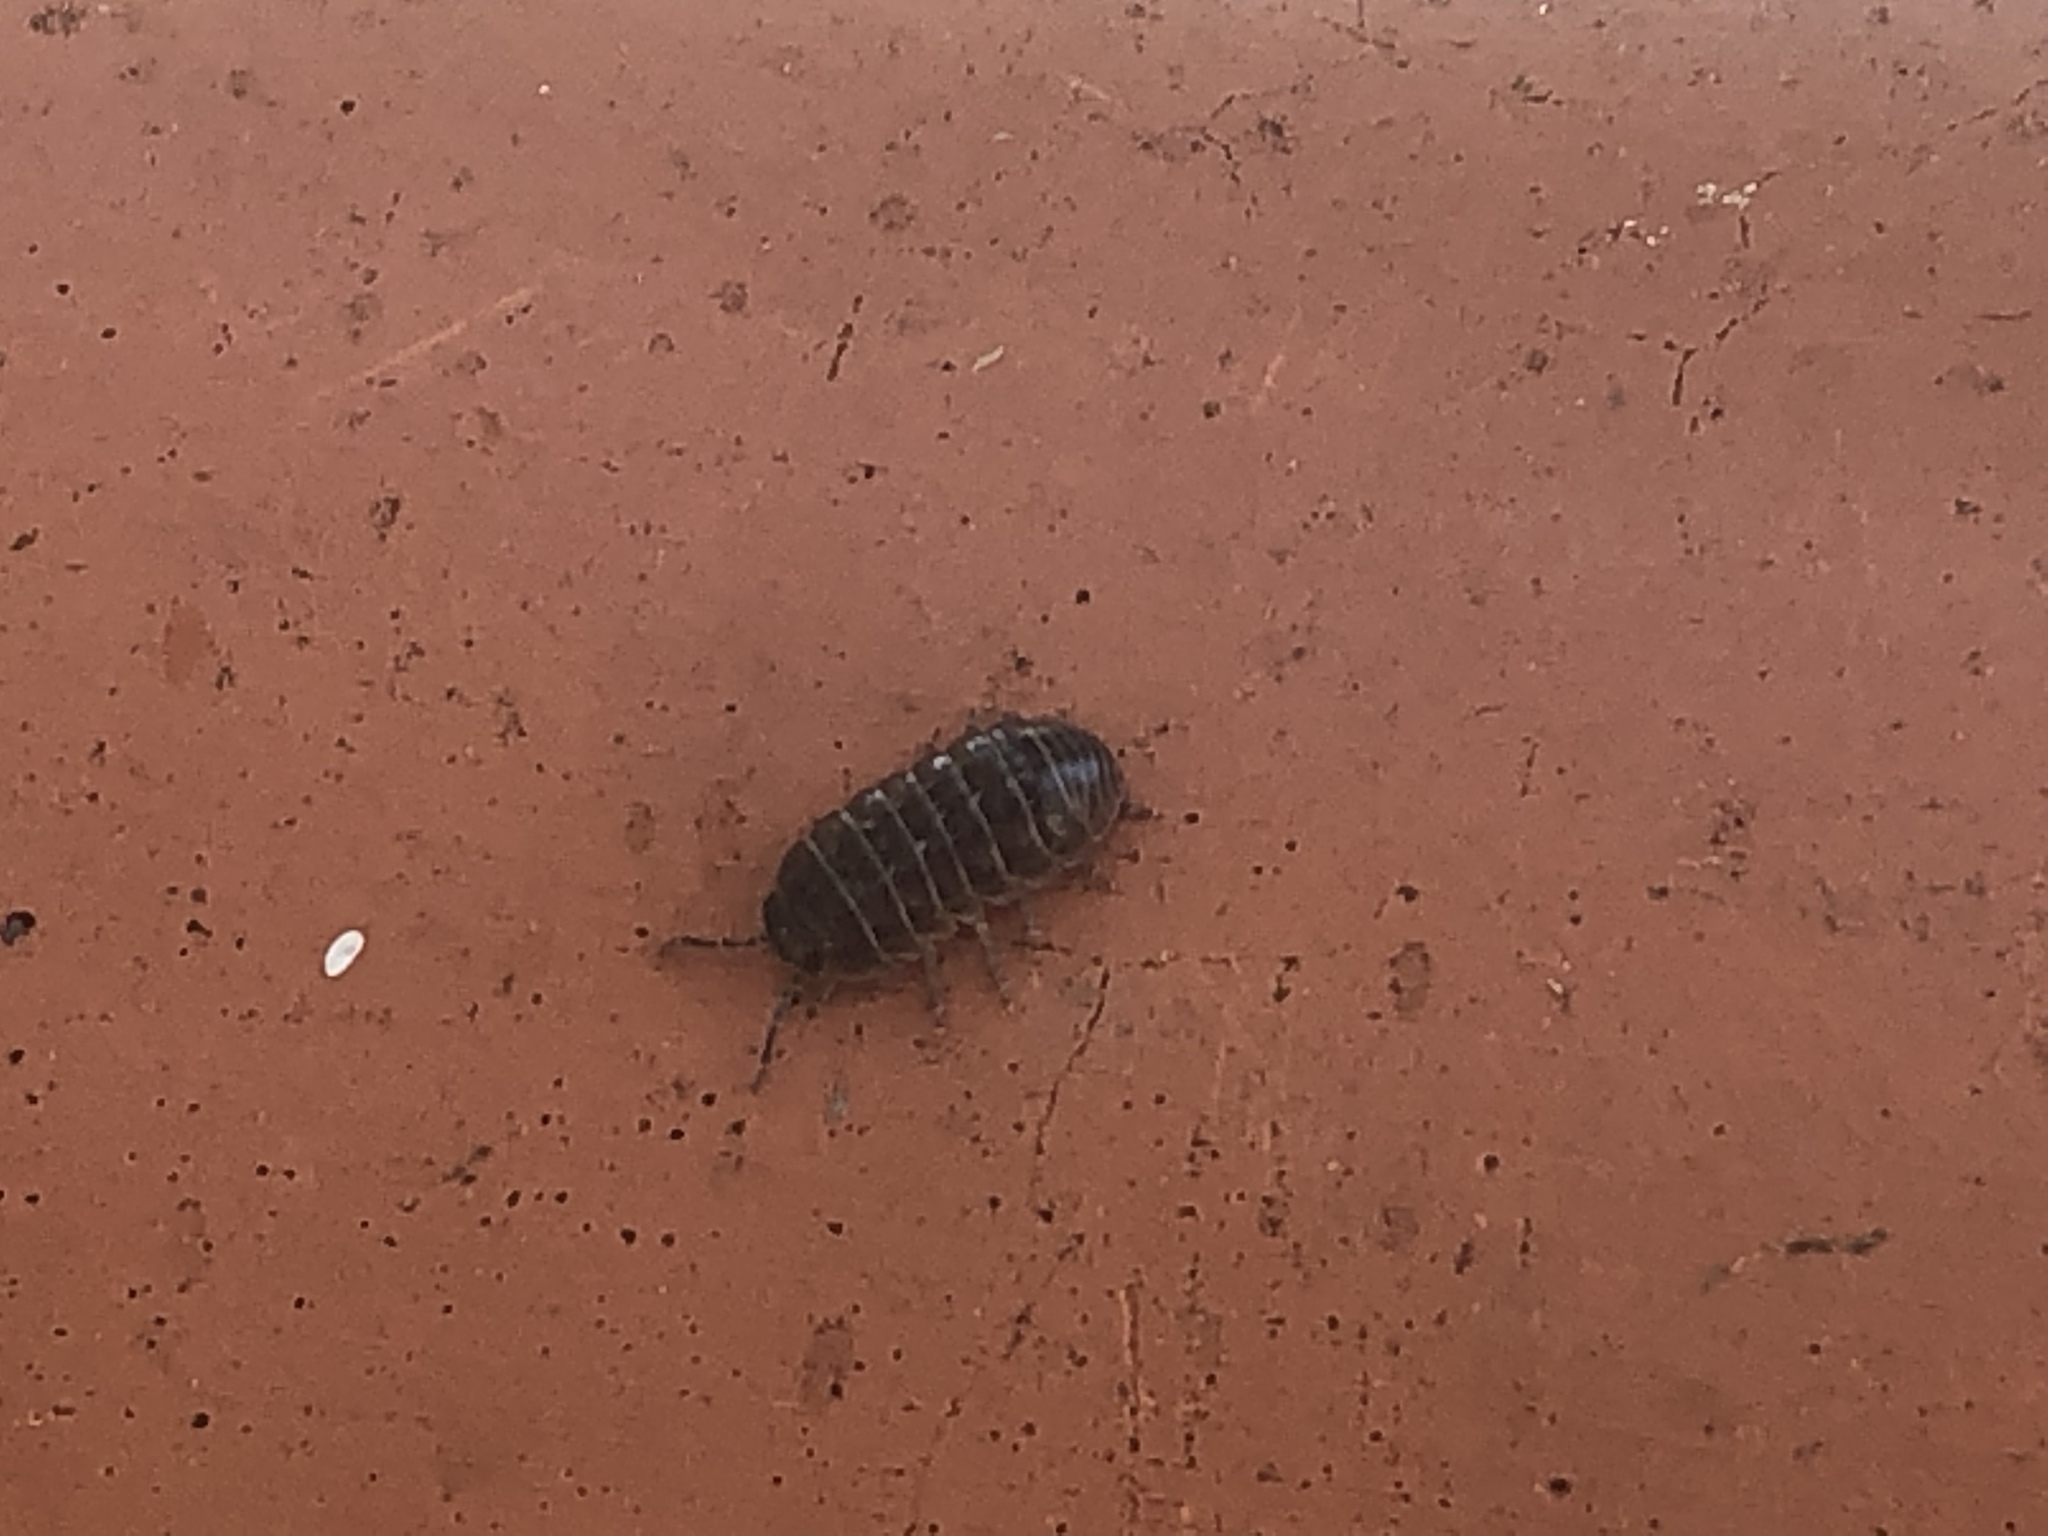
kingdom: Animalia
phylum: Arthropoda
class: Malacostraca
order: Isopoda
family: Armadillidiidae
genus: Armadillidium
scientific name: Armadillidium vulgare
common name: Common pill woodlouse
